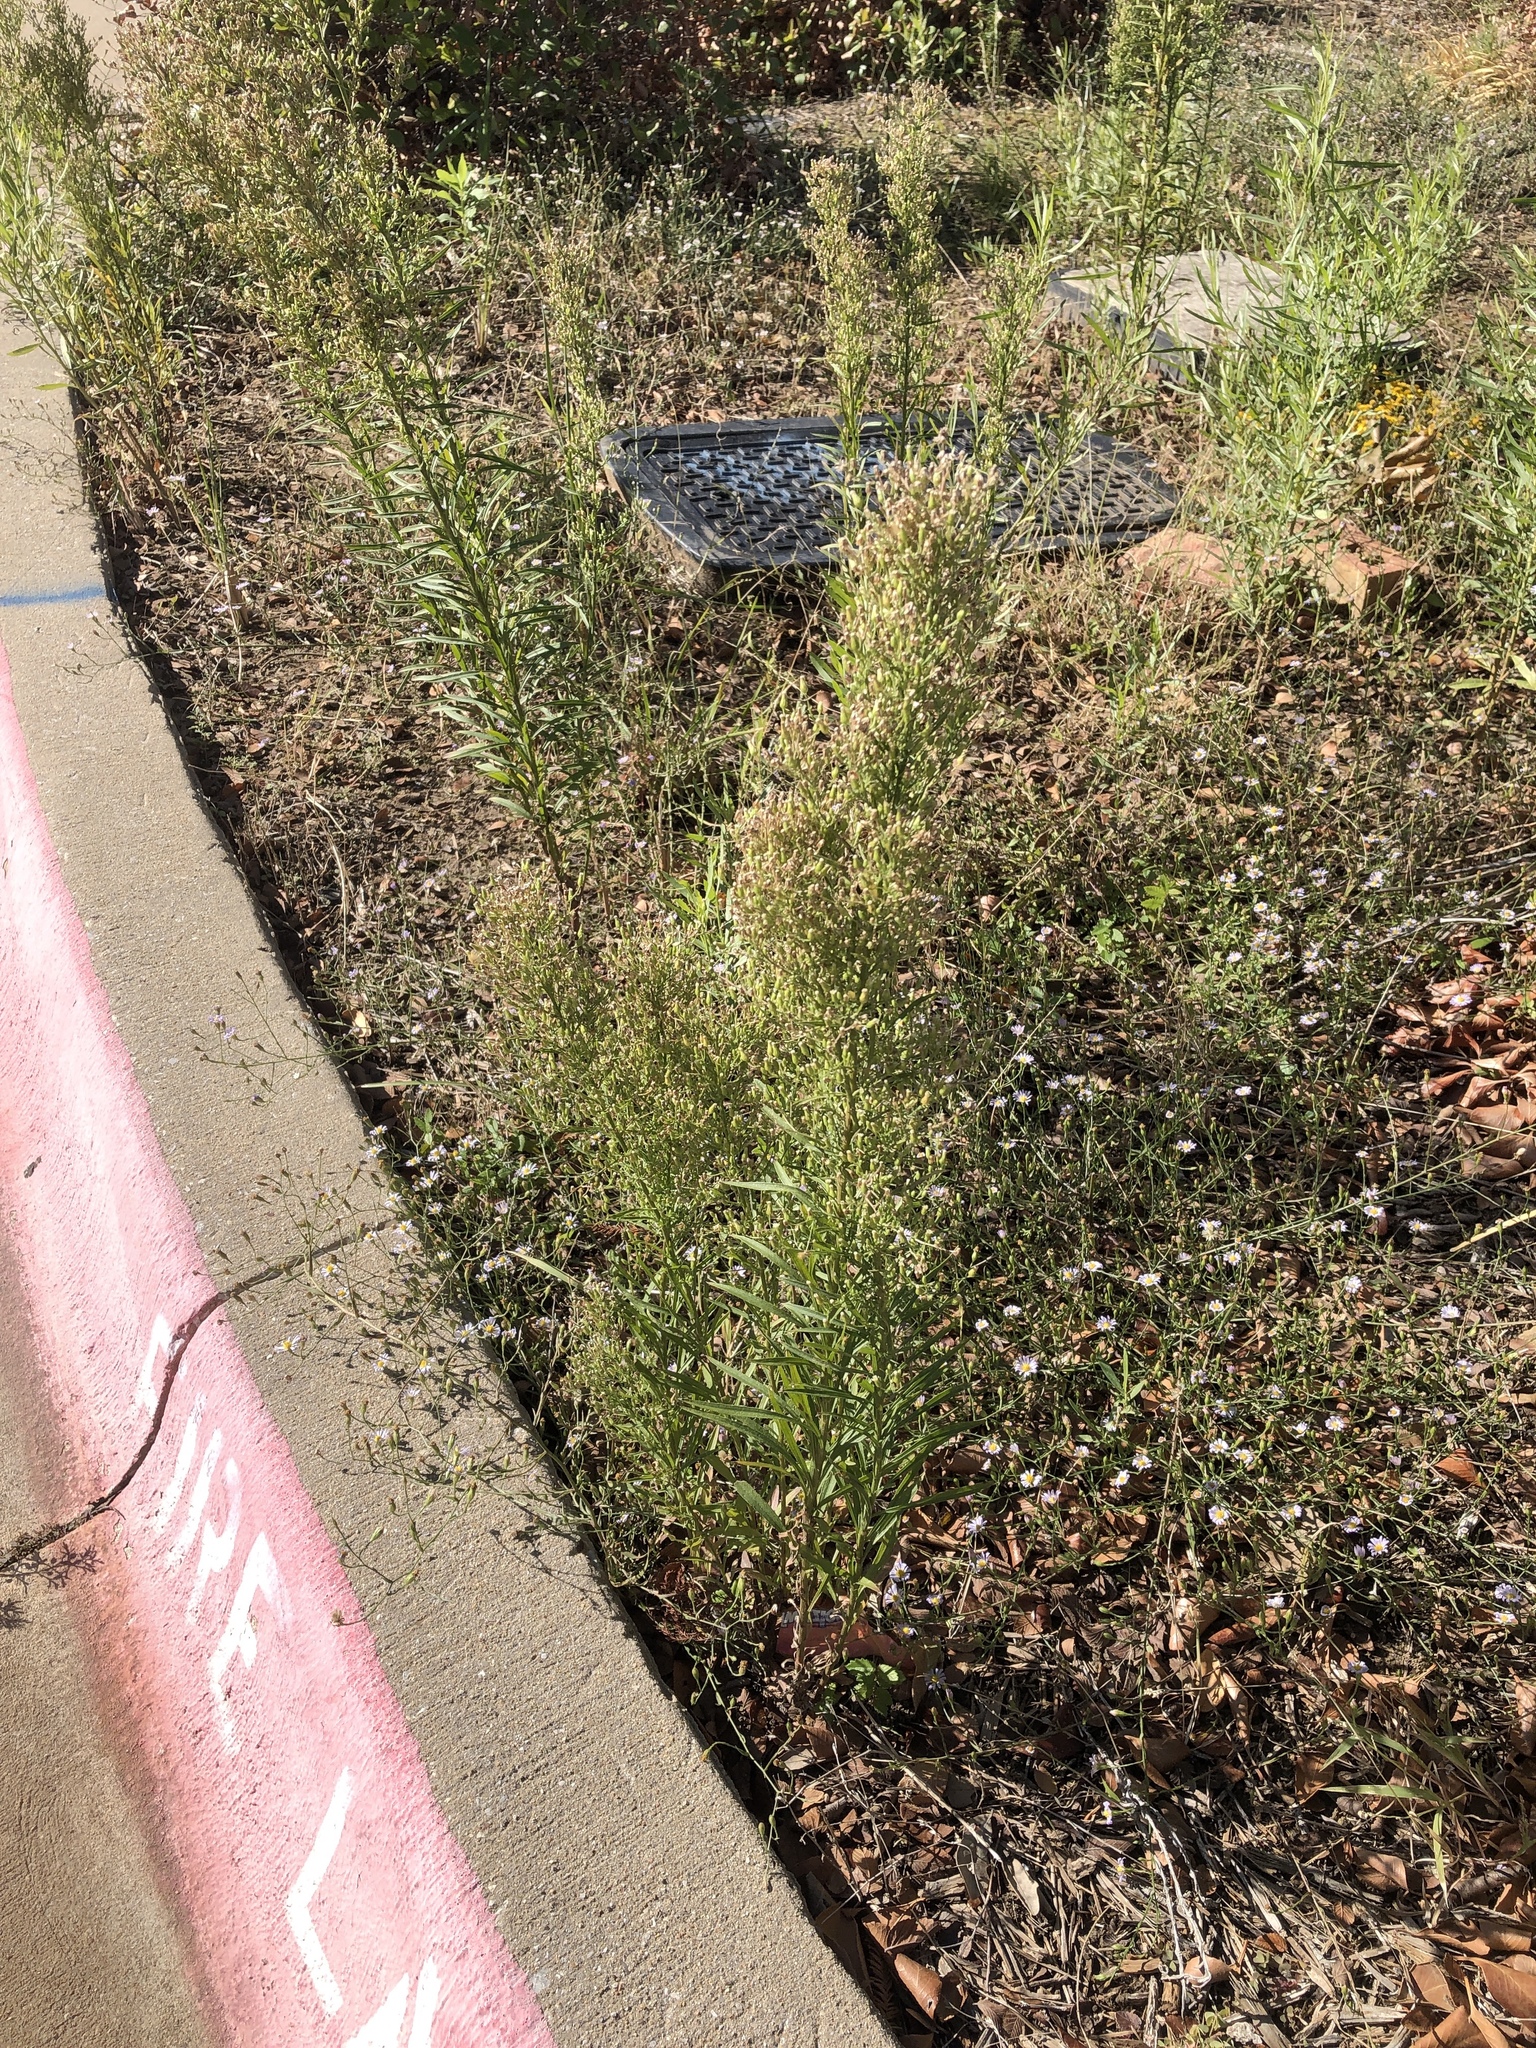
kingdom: Plantae
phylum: Tracheophyta
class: Magnoliopsida
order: Asterales
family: Asteraceae
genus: Erigeron
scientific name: Erigeron canadensis
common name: Canadian fleabane
